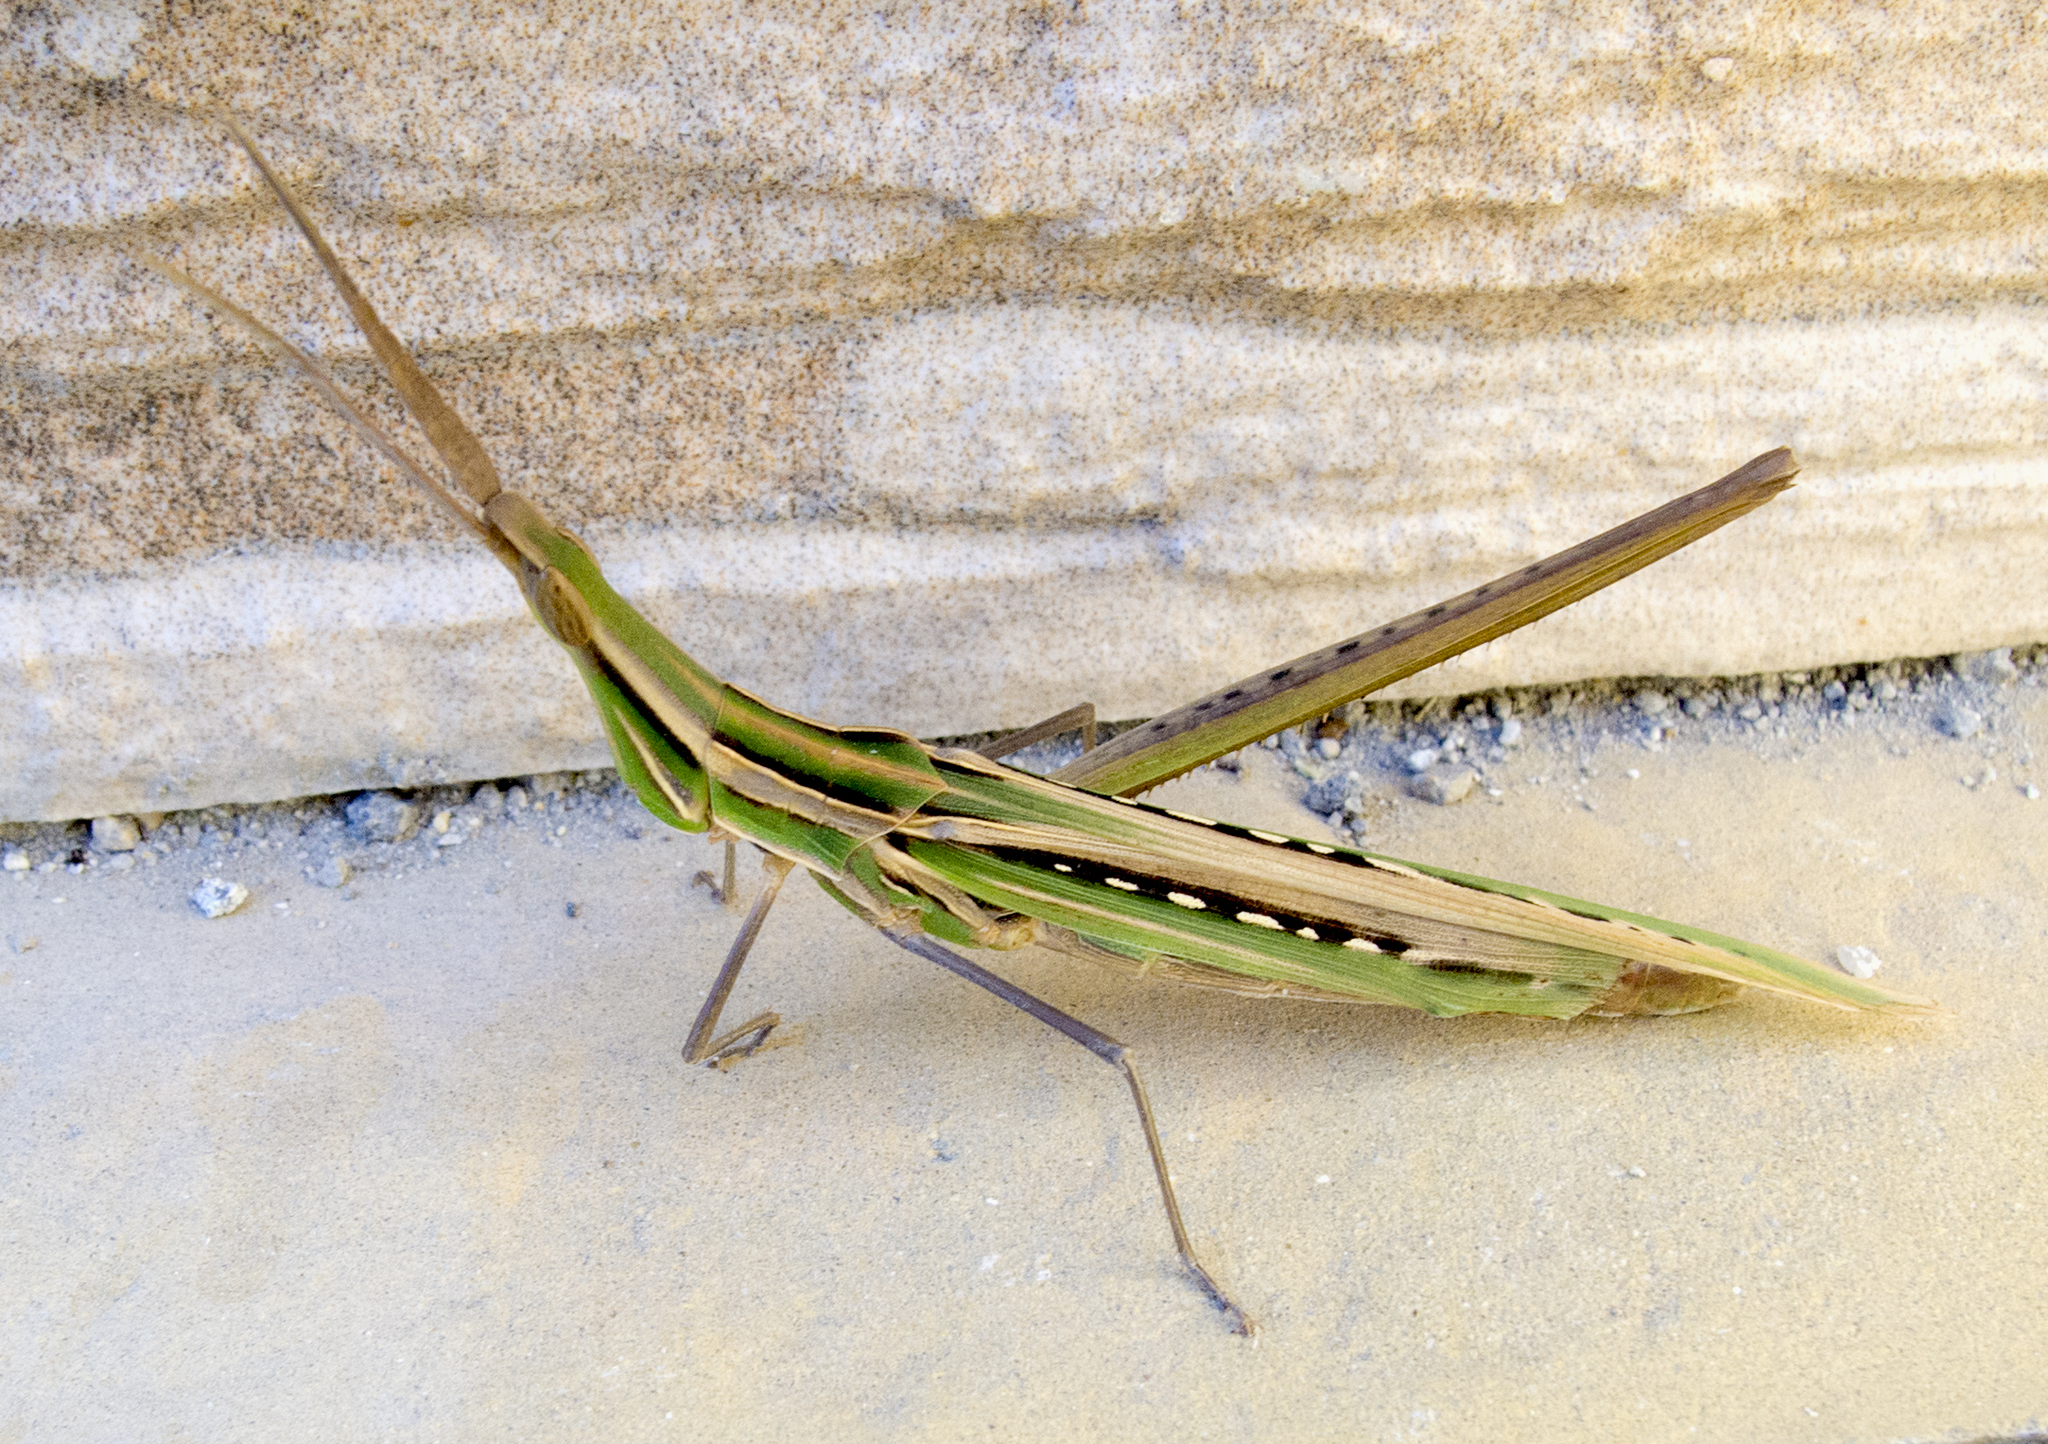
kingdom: Animalia
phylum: Arthropoda
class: Insecta
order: Orthoptera
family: Acrididae
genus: Acrida
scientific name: Acrida ungarica
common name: Common cone-headed grasshopper
